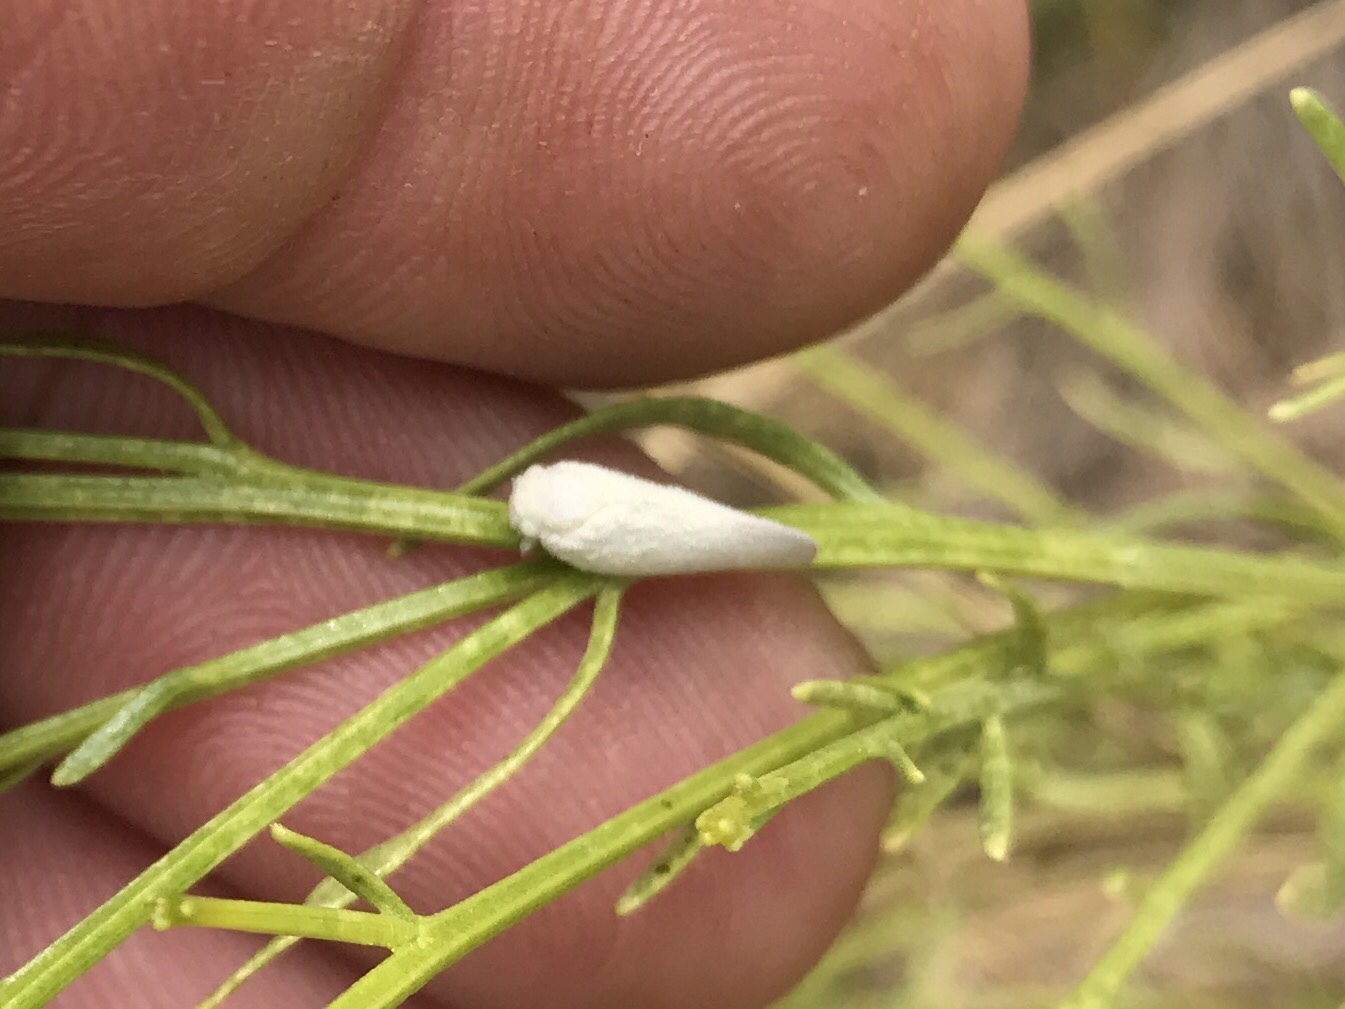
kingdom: Animalia
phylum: Arthropoda
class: Insecta
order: Hemiptera
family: Flatidae
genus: Flatormenis
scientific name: Flatormenis saucia
